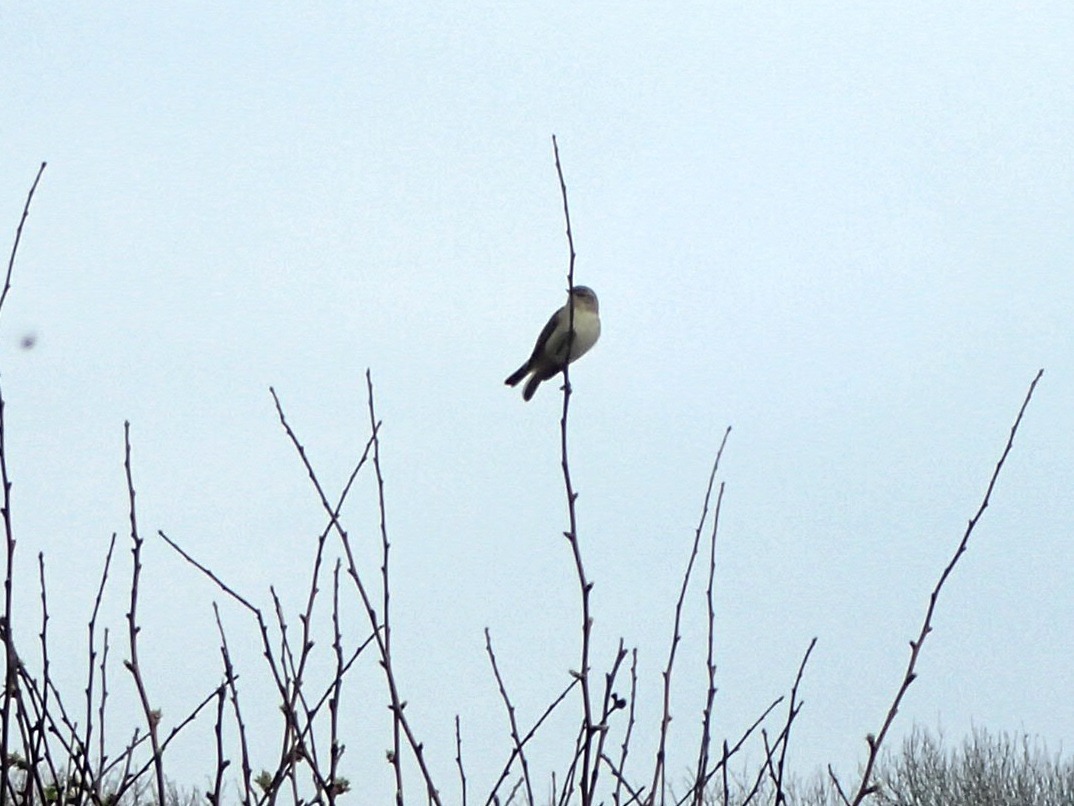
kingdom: Animalia
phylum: Chordata
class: Aves
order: Passeriformes
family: Muscicapidae
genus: Ficedula
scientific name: Ficedula hypoleuca
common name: European pied flycatcher
